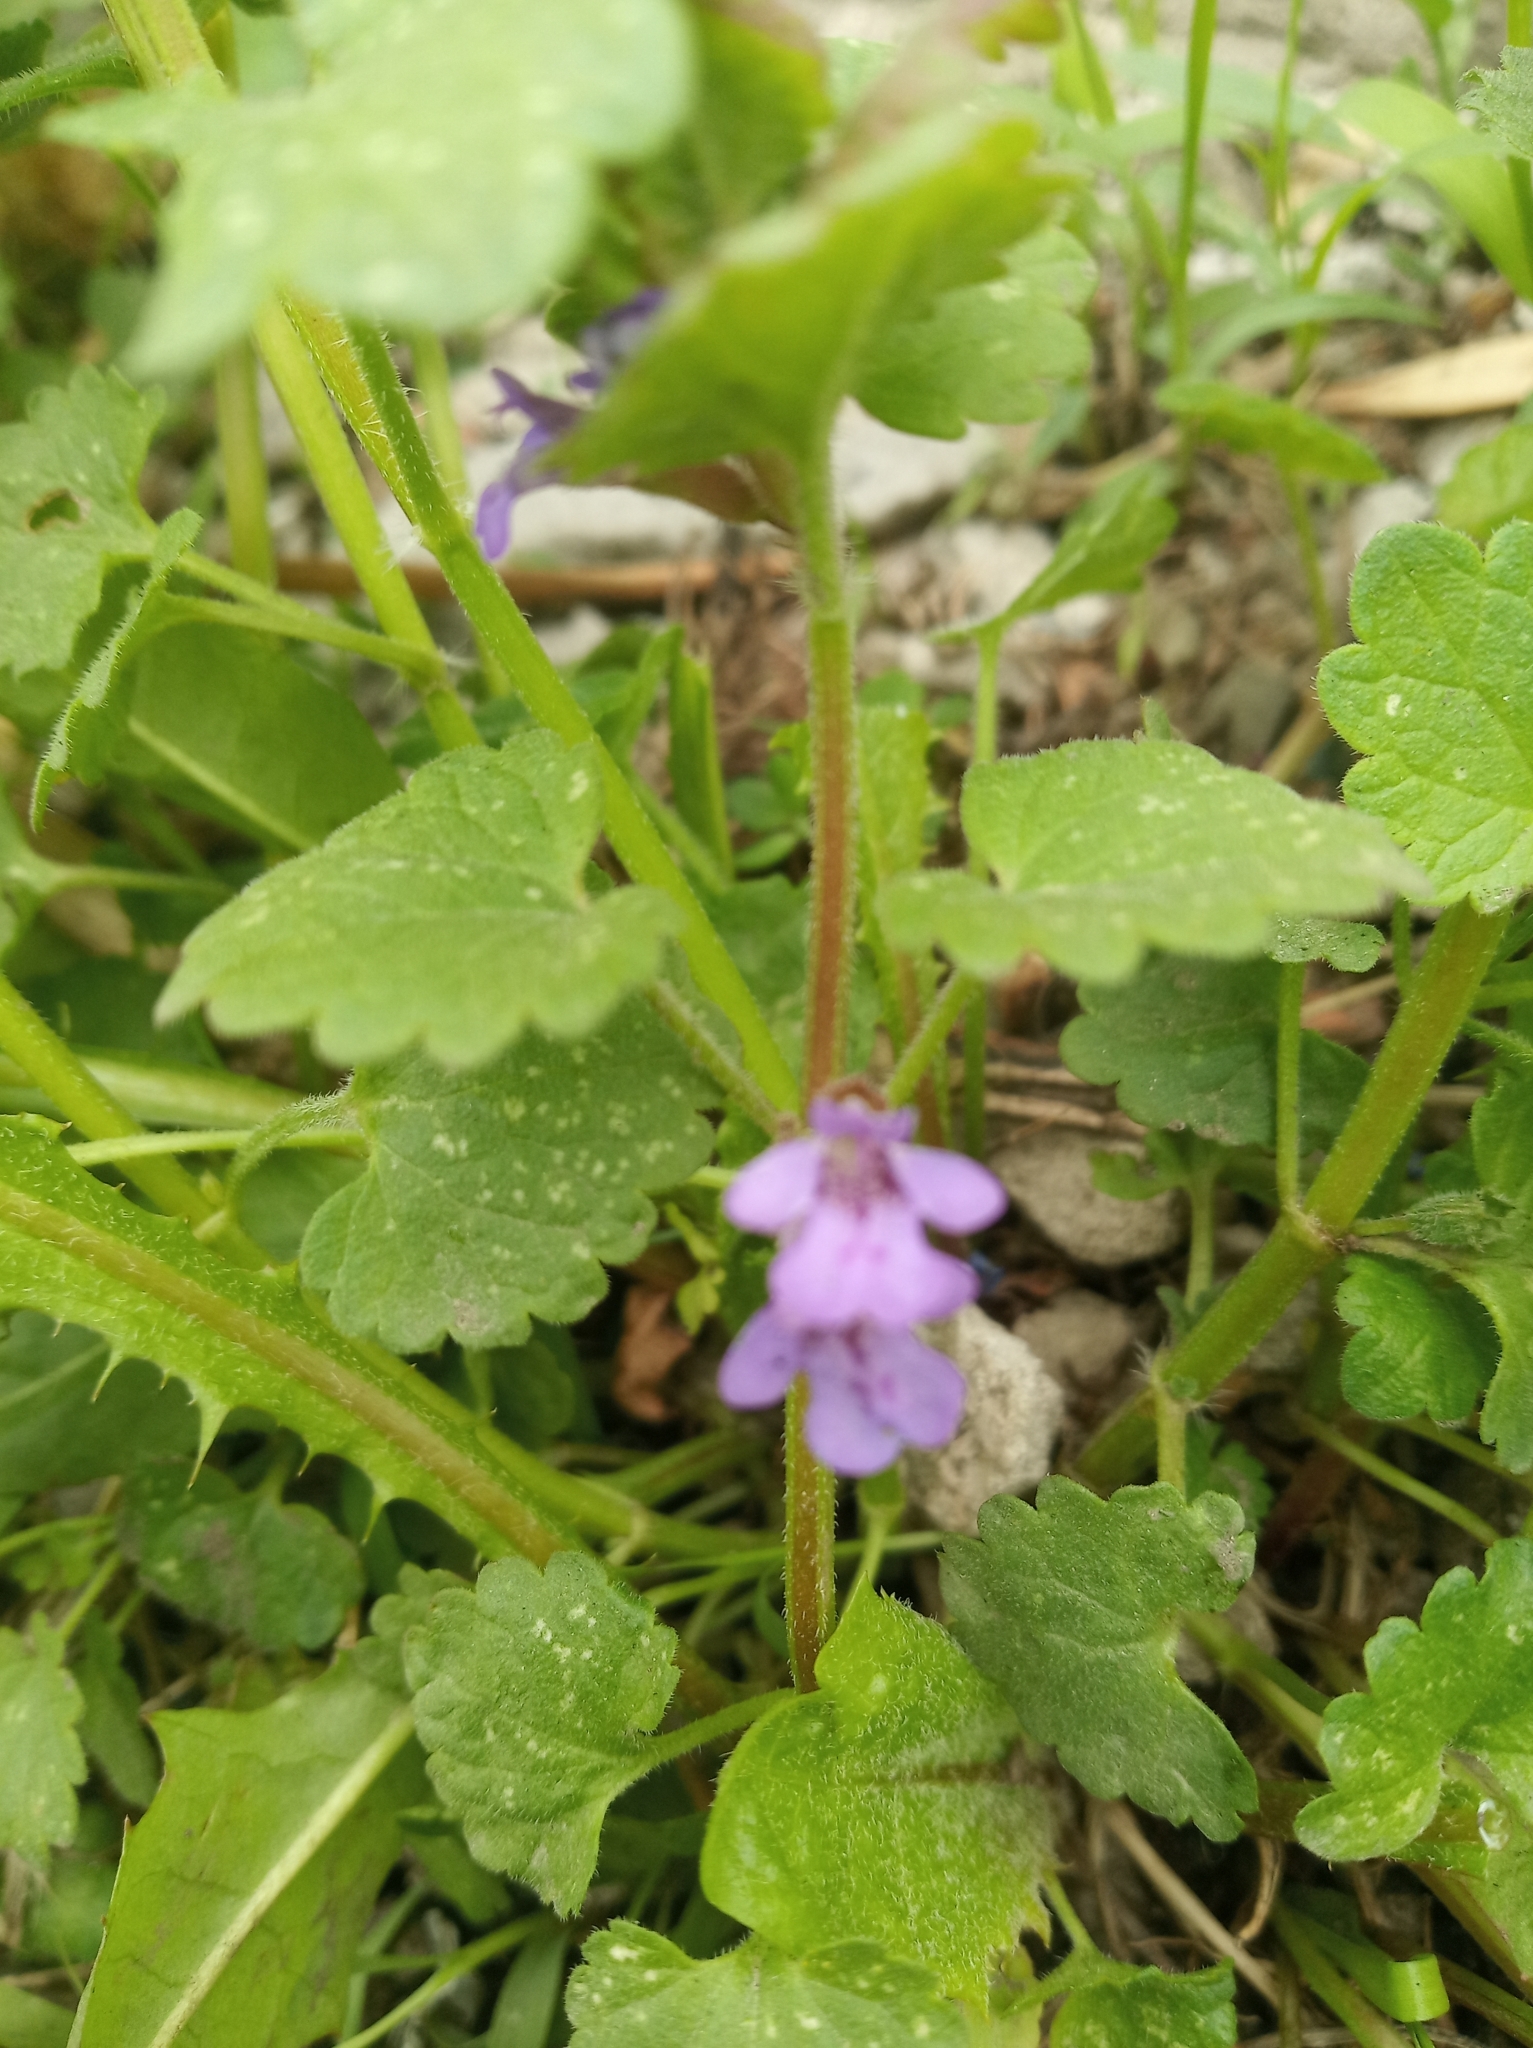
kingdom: Plantae
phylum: Tracheophyta
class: Magnoliopsida
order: Lamiales
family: Lamiaceae
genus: Glechoma
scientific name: Glechoma hederacea
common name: Ground ivy
